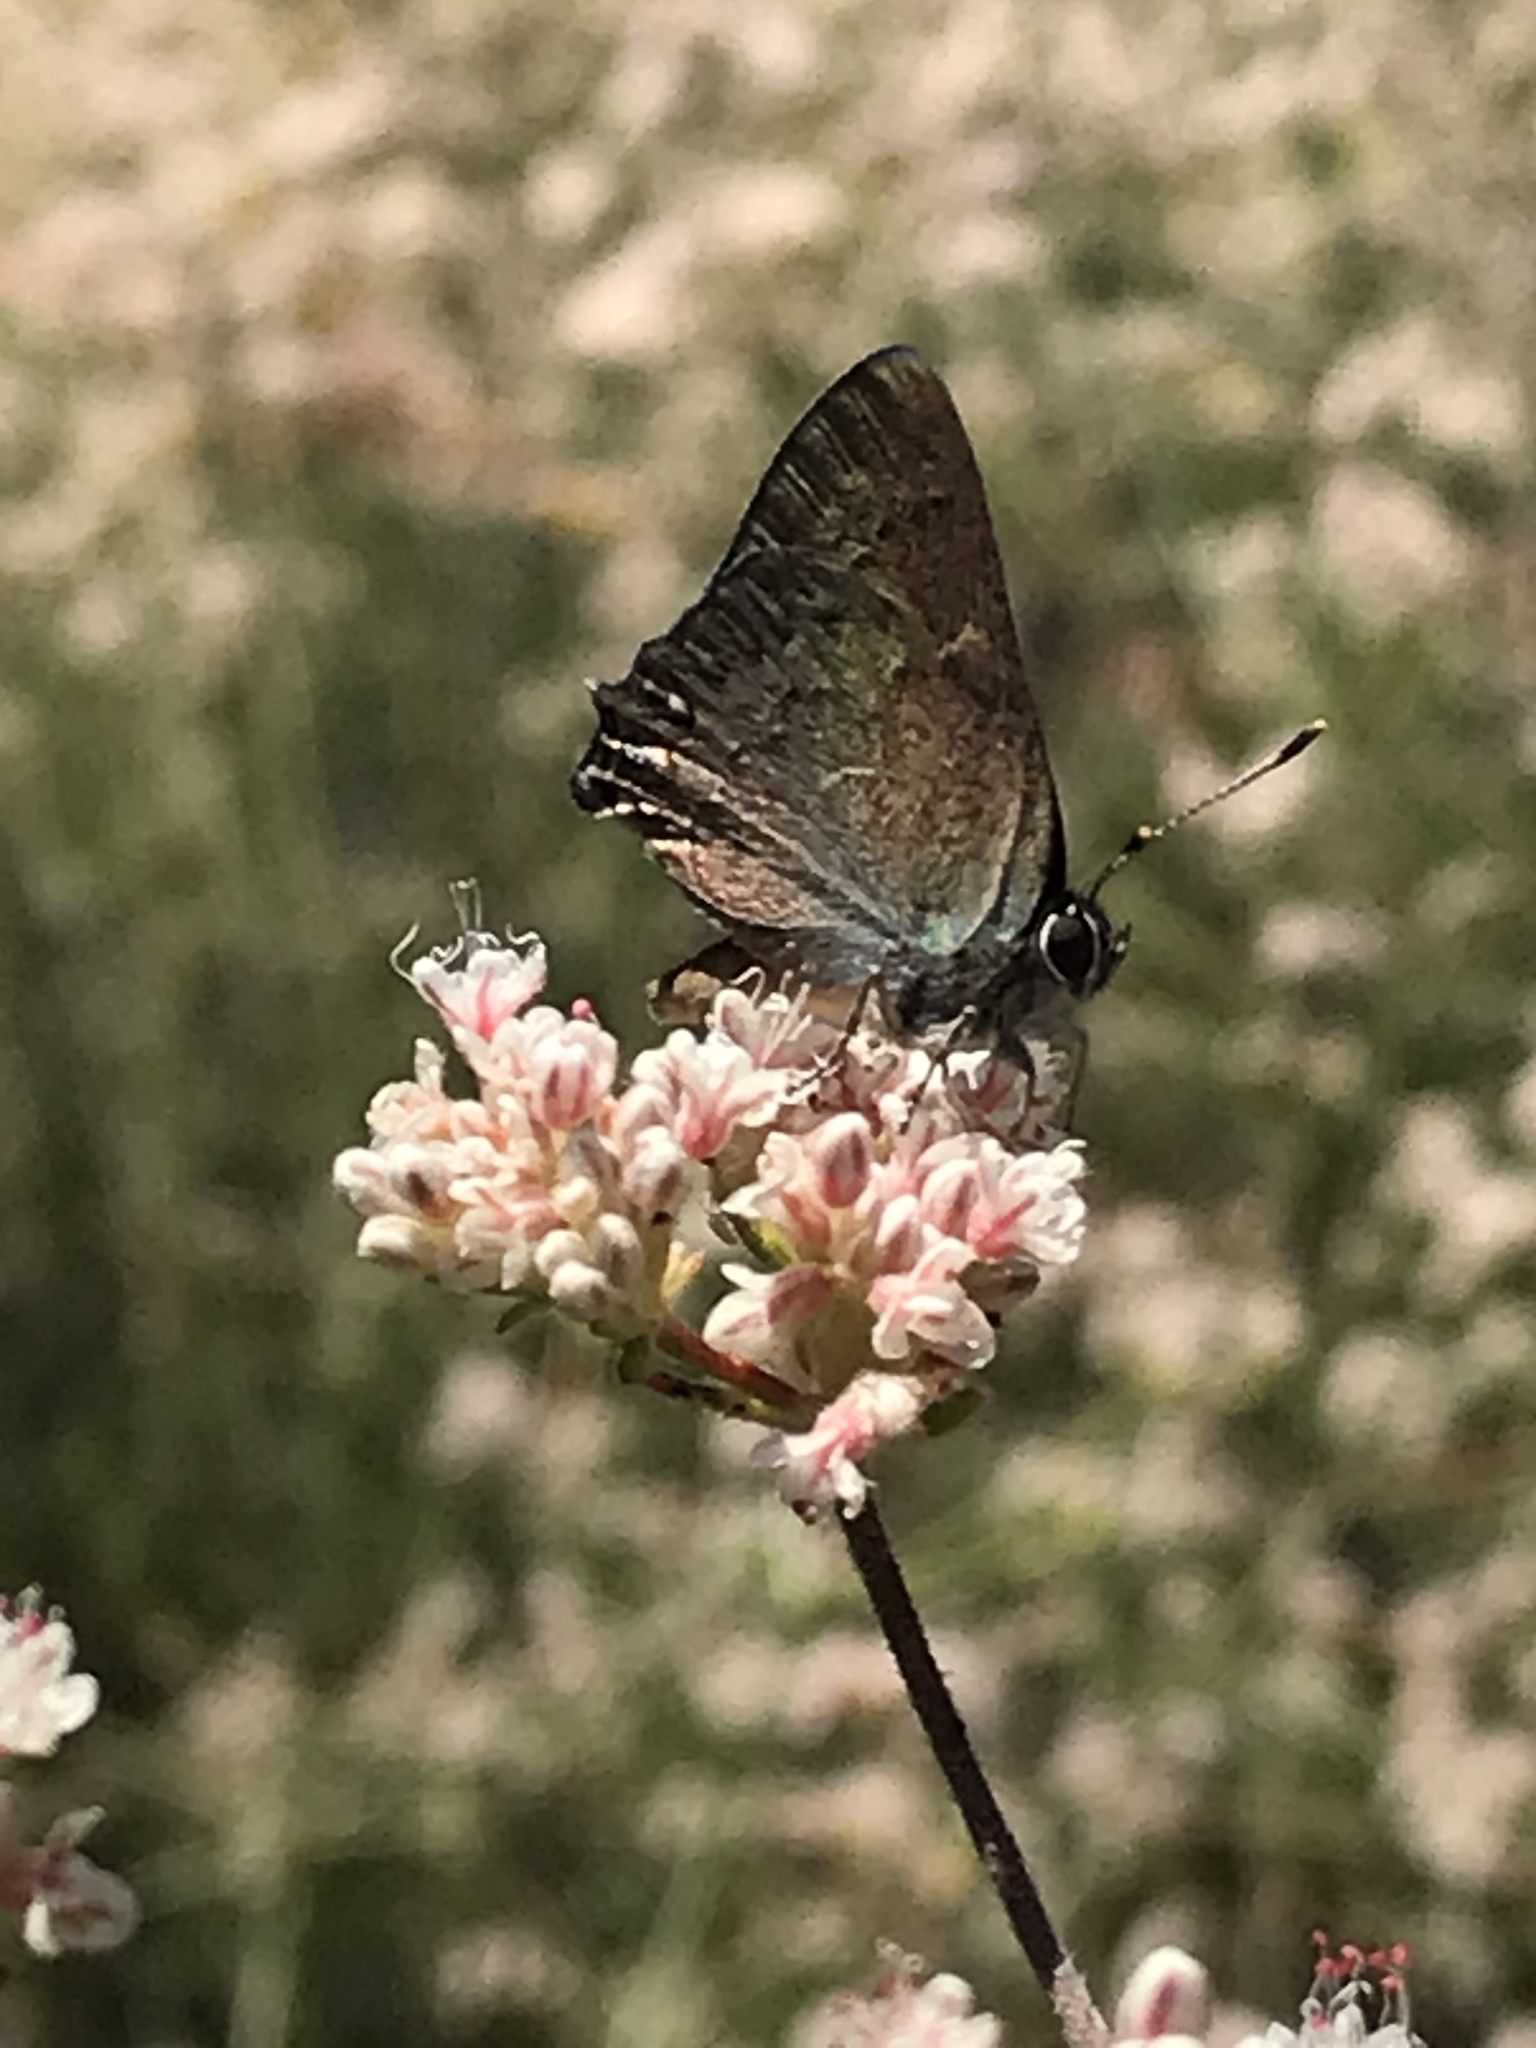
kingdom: Animalia
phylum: Arthropoda
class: Insecta
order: Lepidoptera
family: Lycaenidae
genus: Strymon
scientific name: Strymon saepium
